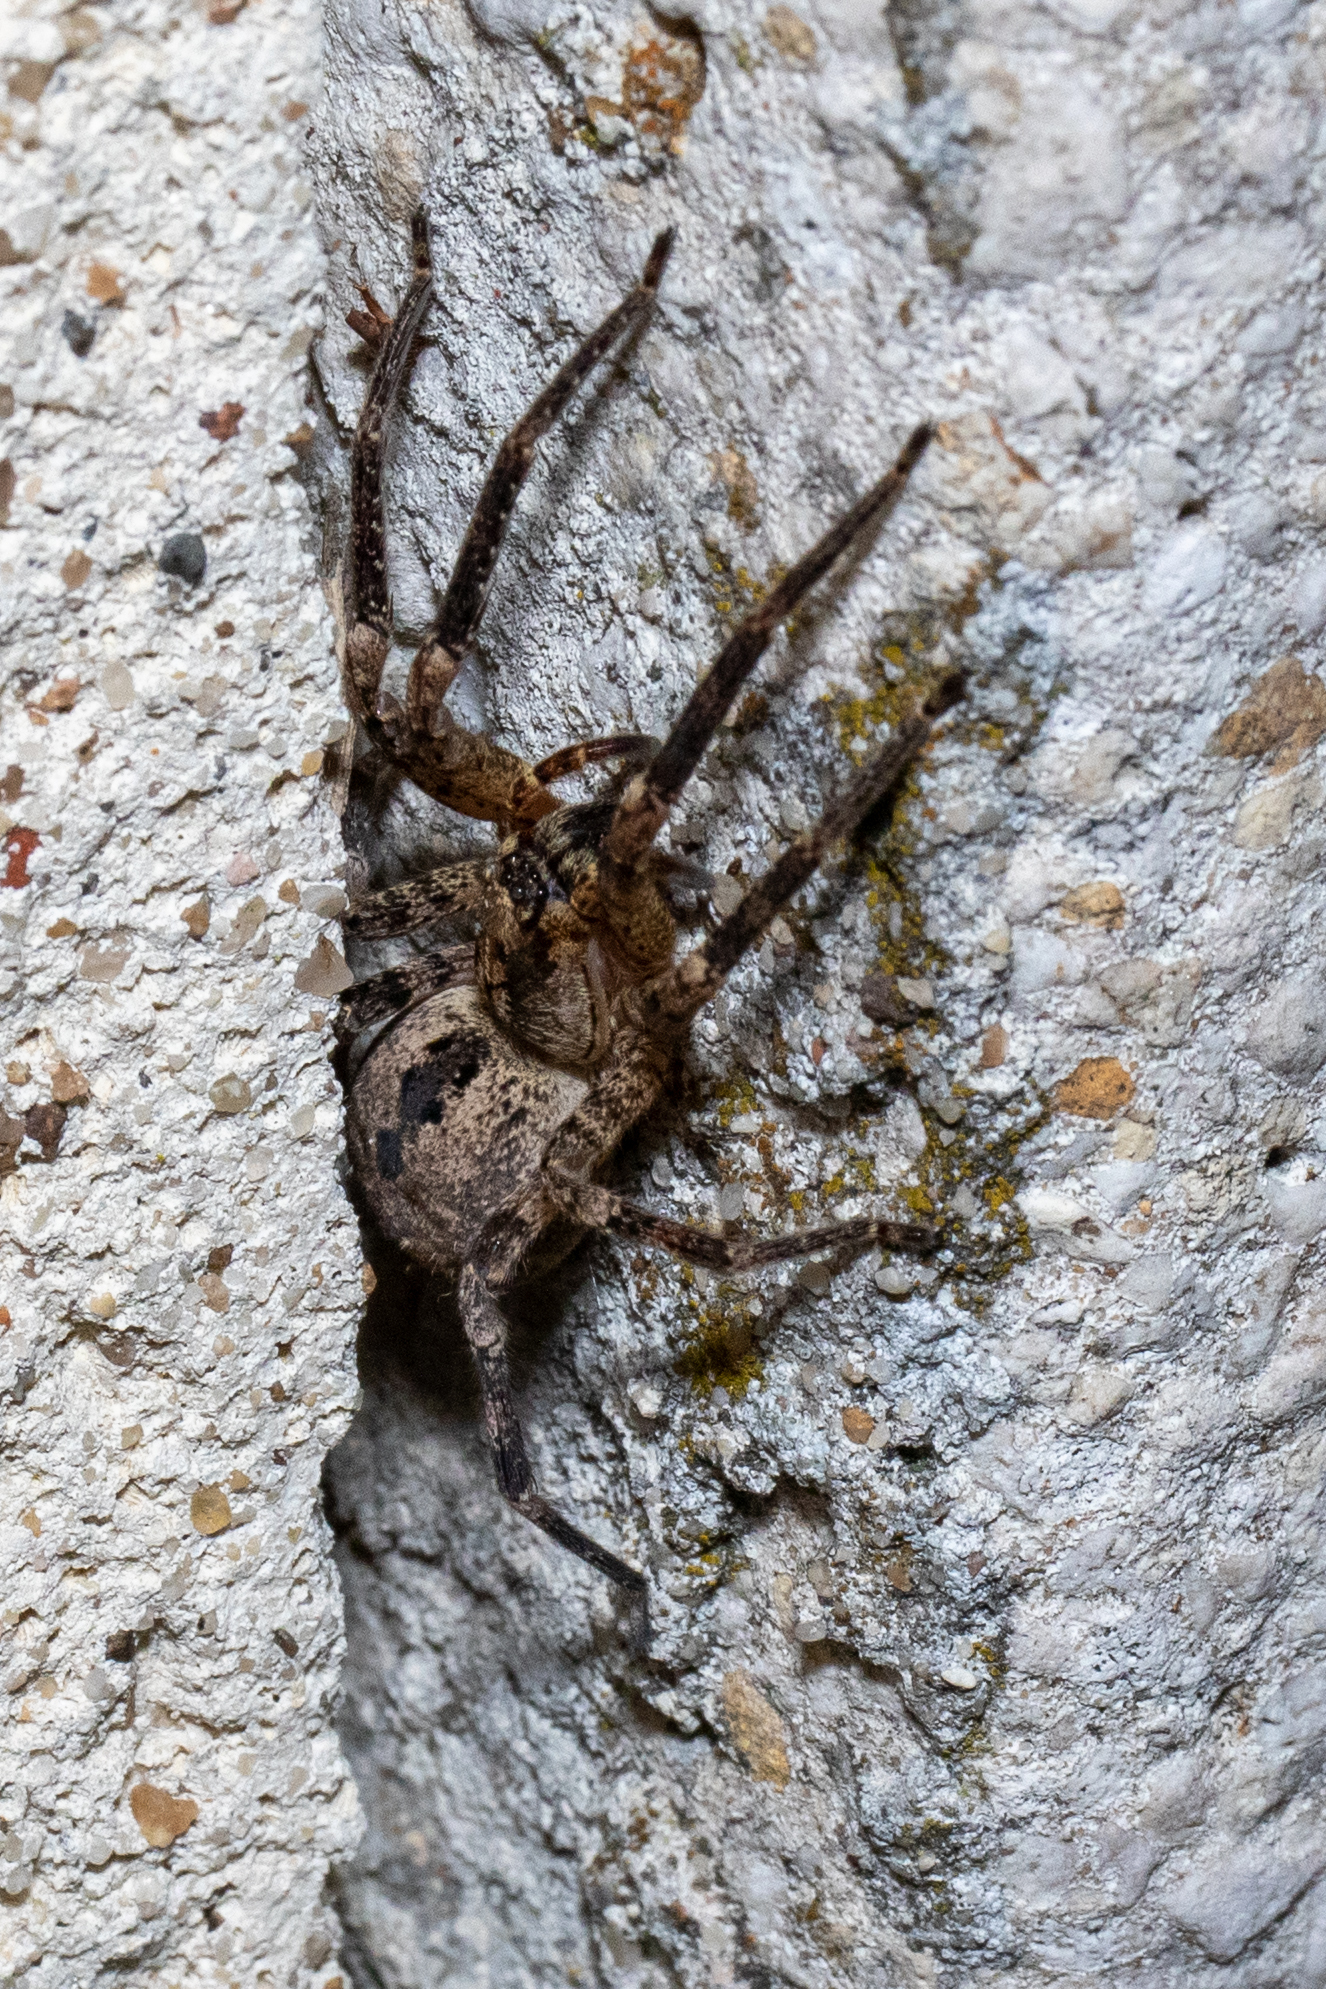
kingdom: Animalia
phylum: Arthropoda
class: Arachnida
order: Araneae
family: Zoropsidae
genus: Zoropsis
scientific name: Zoropsis spinimana
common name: Zoropsid spider
